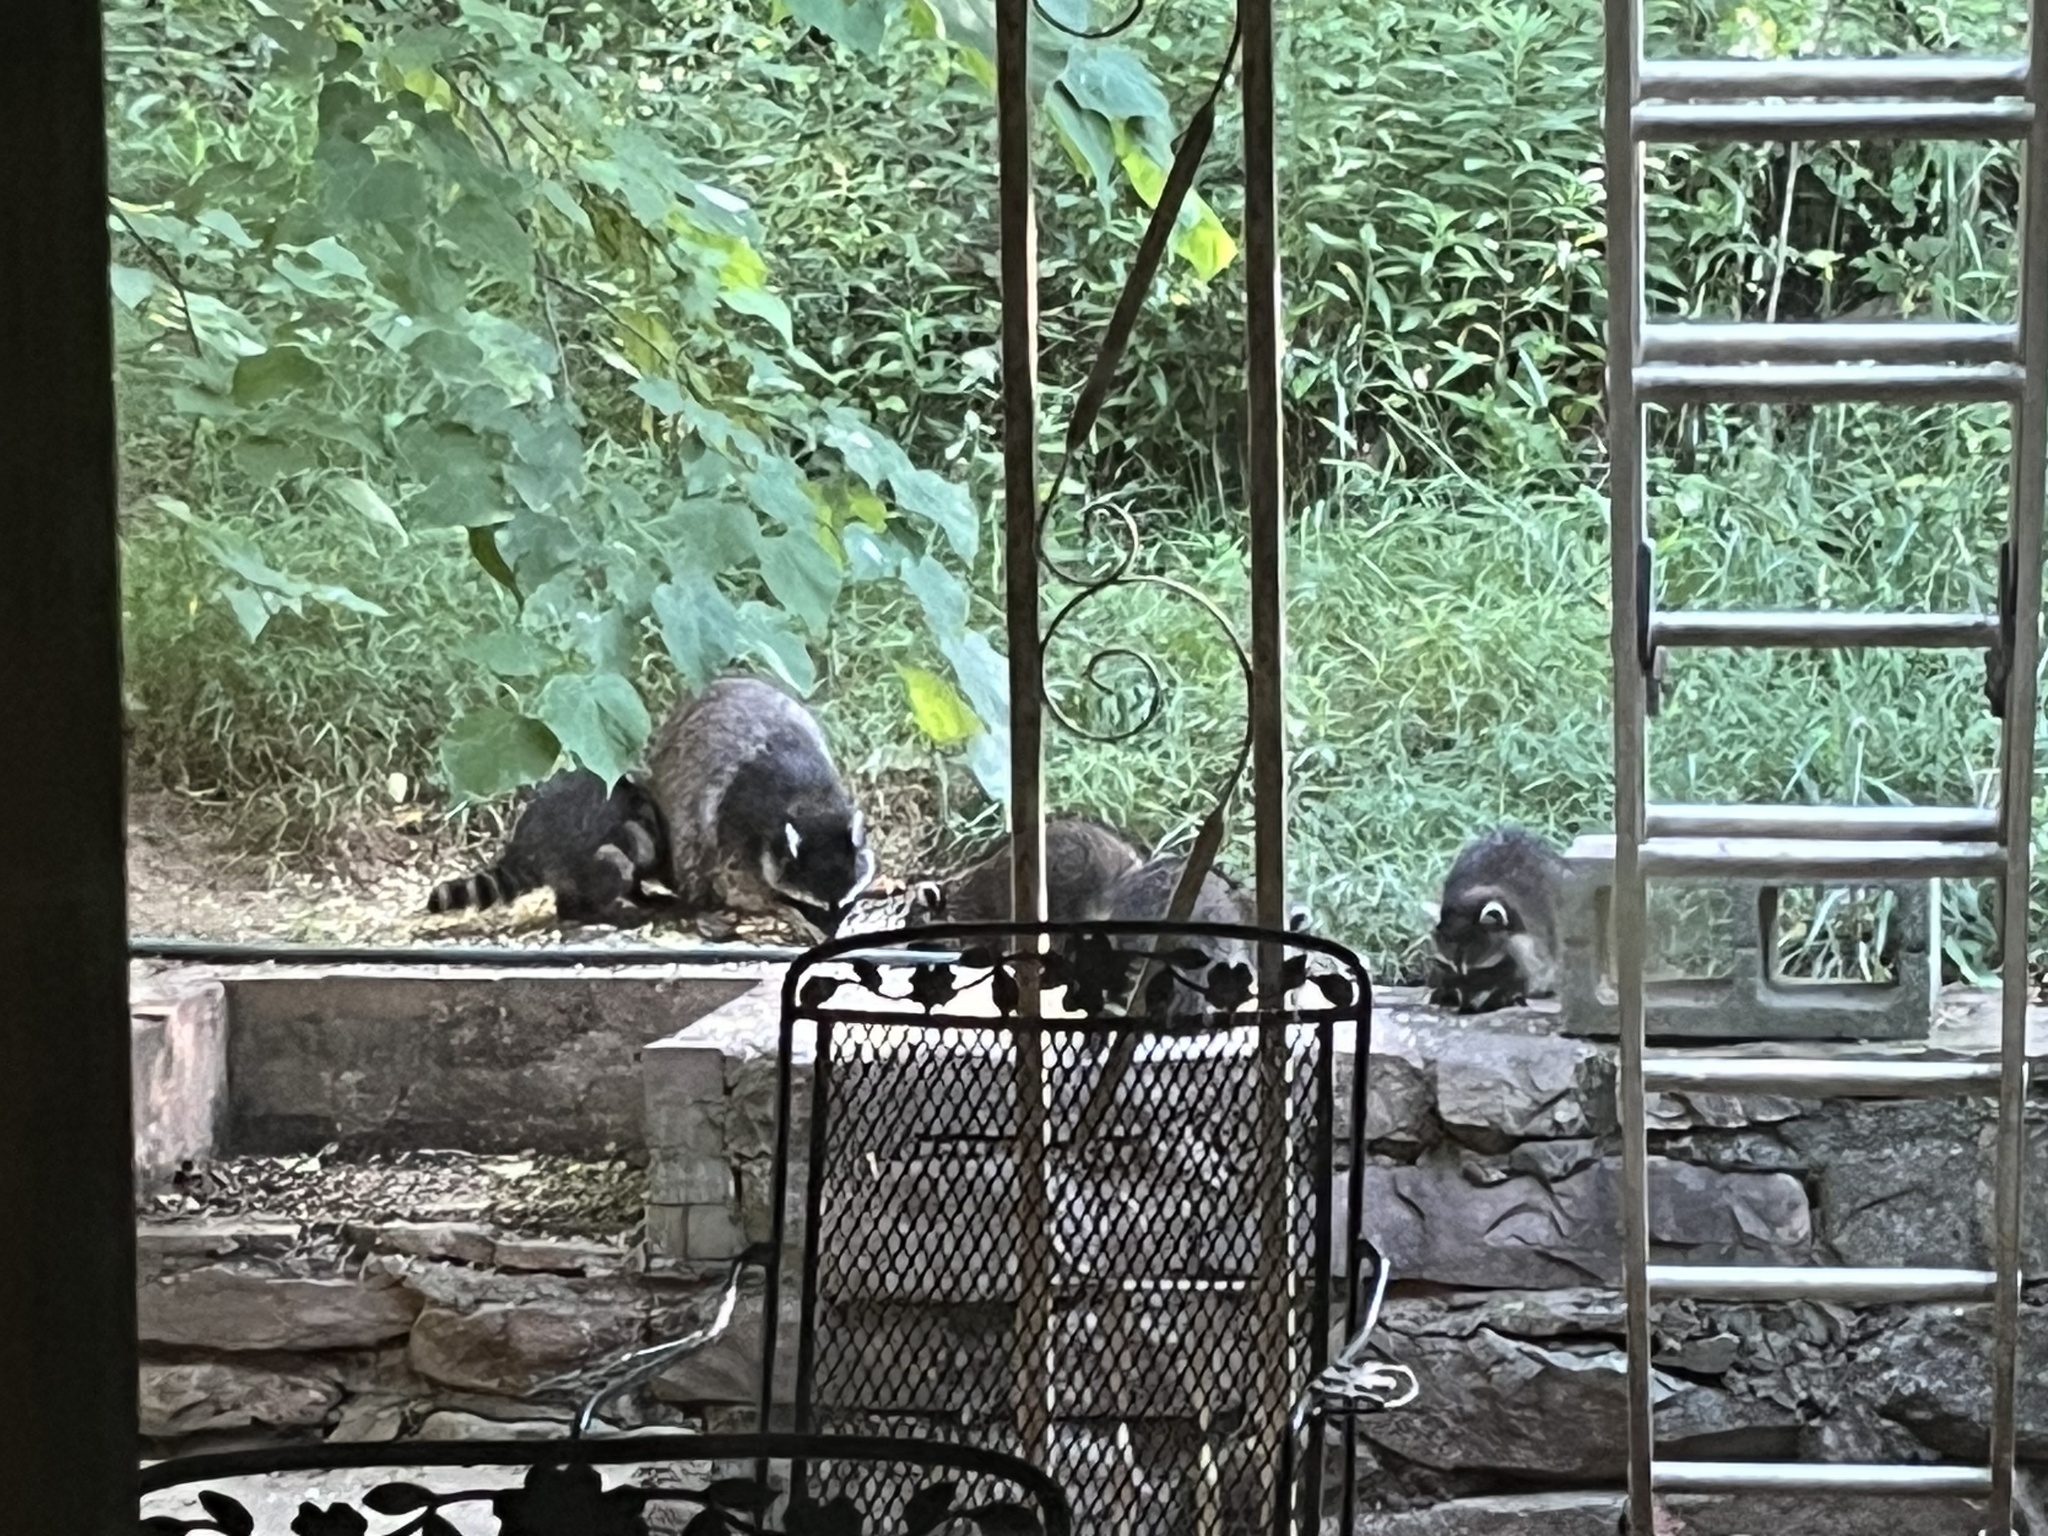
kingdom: Animalia
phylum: Chordata
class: Mammalia
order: Carnivora
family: Procyonidae
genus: Procyon
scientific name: Procyon lotor
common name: Raccoon
